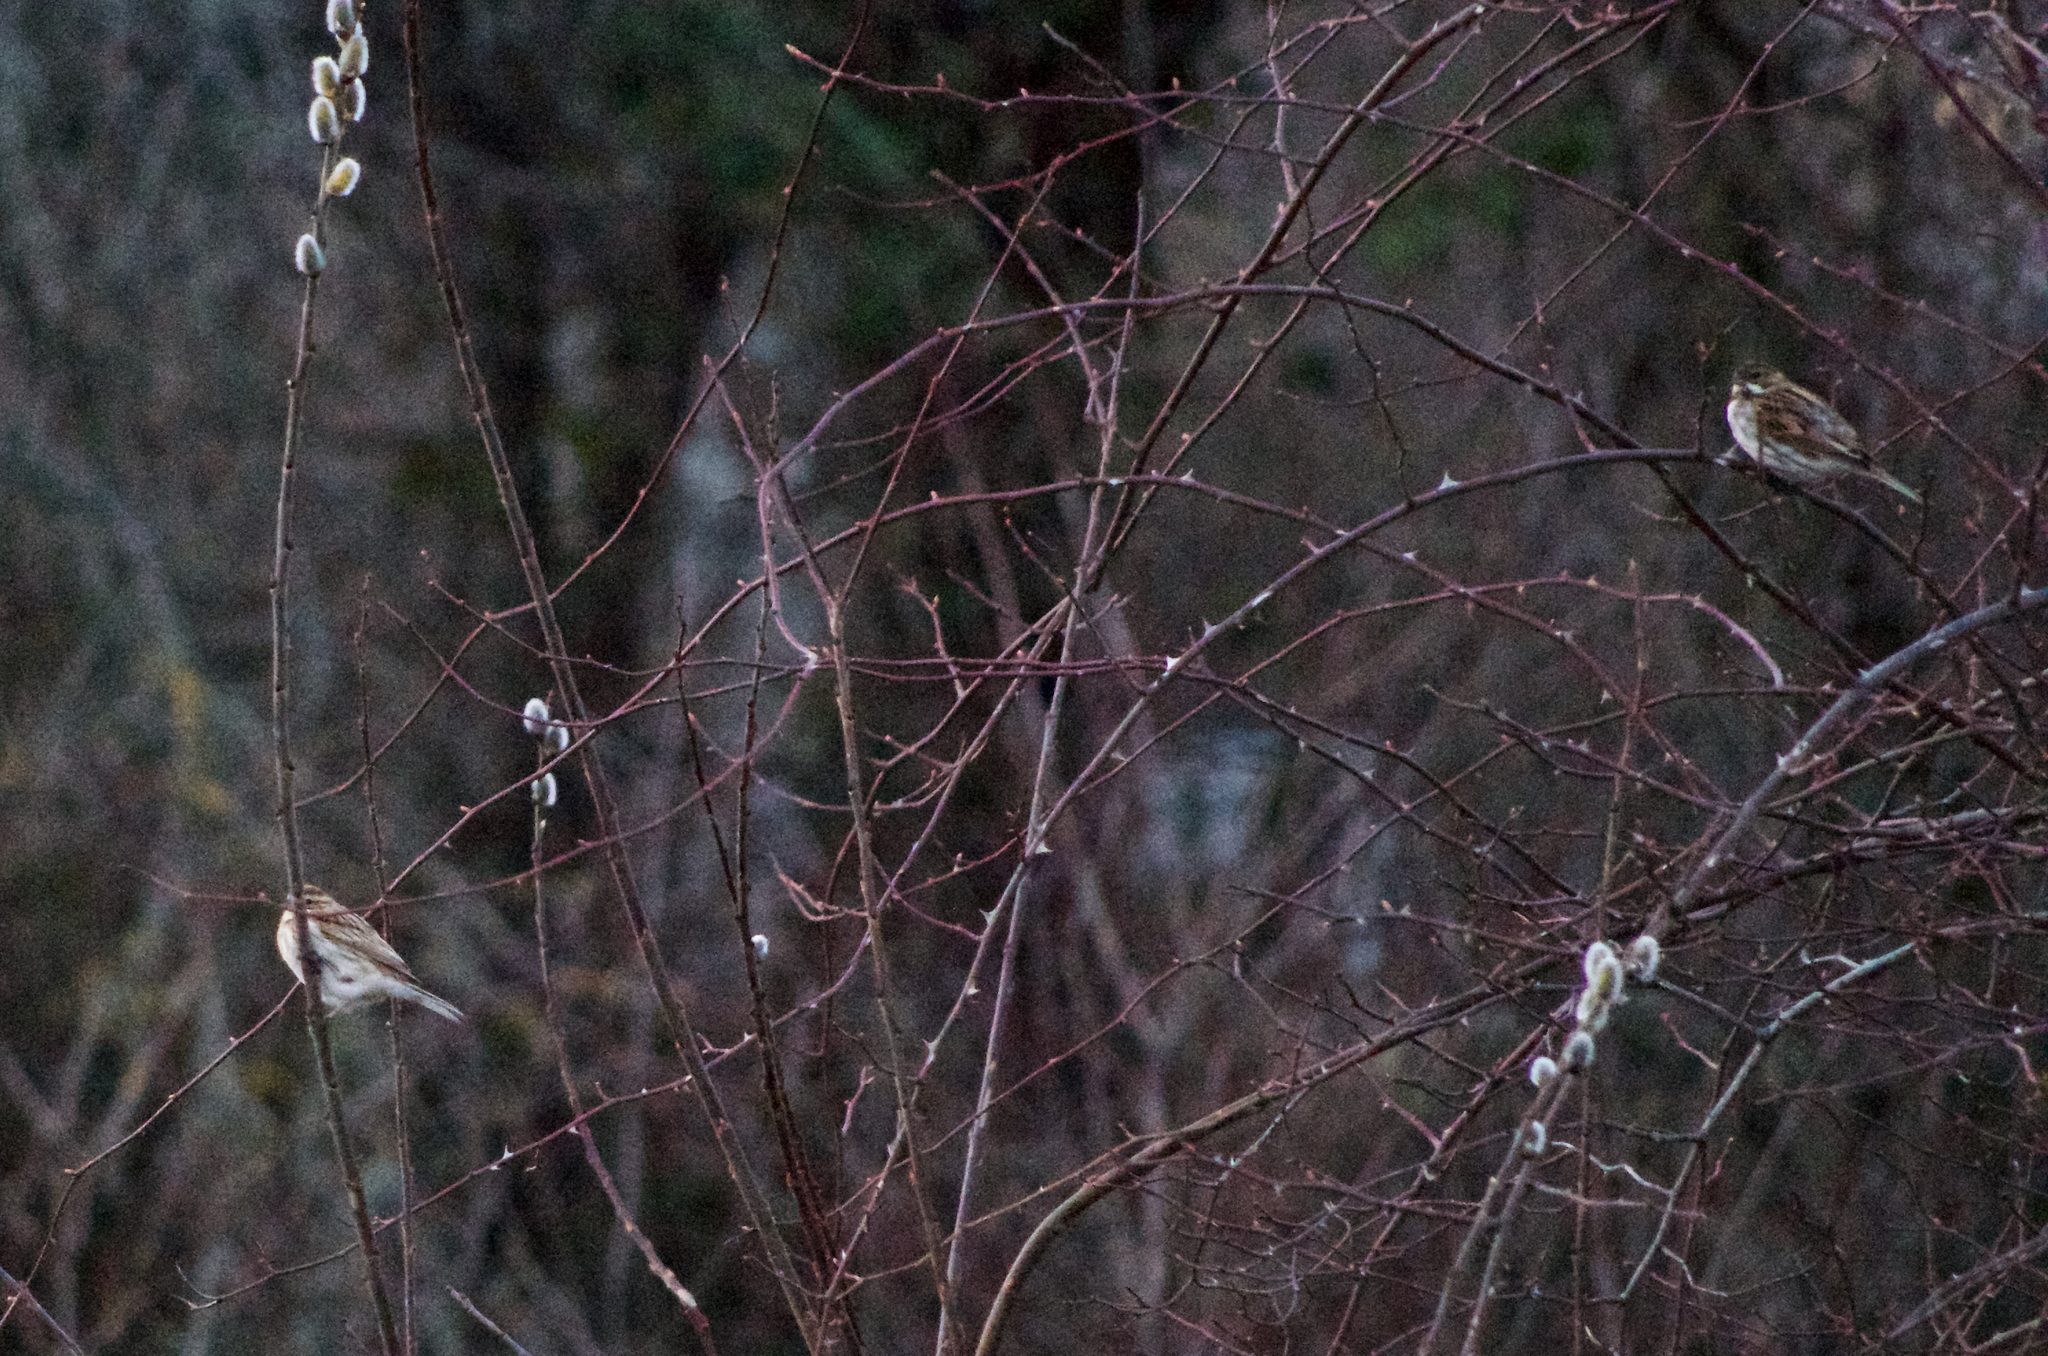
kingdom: Animalia
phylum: Chordata
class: Aves
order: Passeriformes
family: Emberizidae
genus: Emberiza
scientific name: Emberiza schoeniclus
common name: Reed bunting
